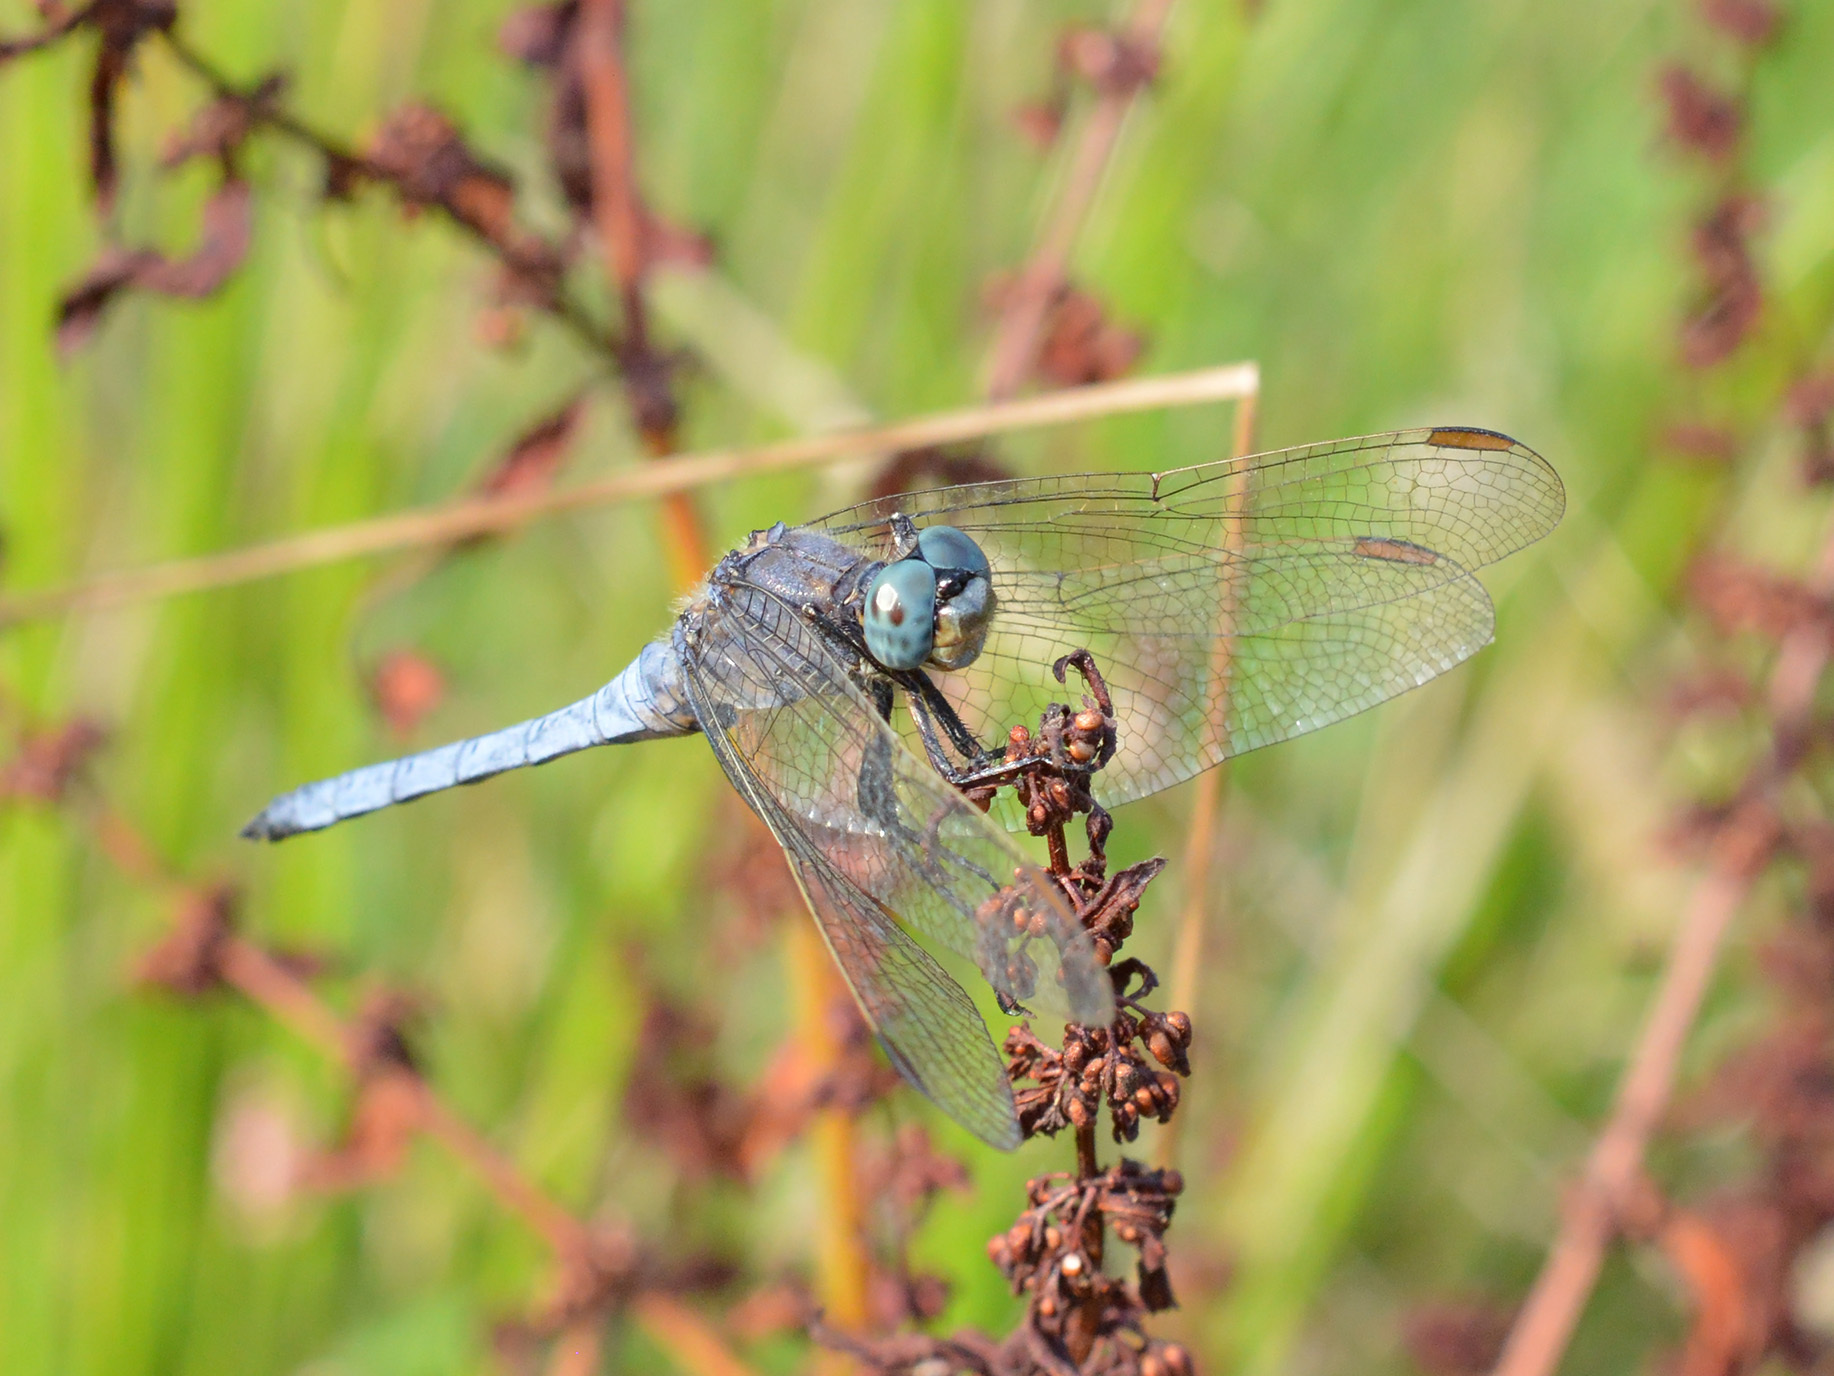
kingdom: Animalia
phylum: Arthropoda
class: Insecta
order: Odonata
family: Libellulidae
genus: Orthetrum
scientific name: Orthetrum coerulescens
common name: Keeled skimmer
